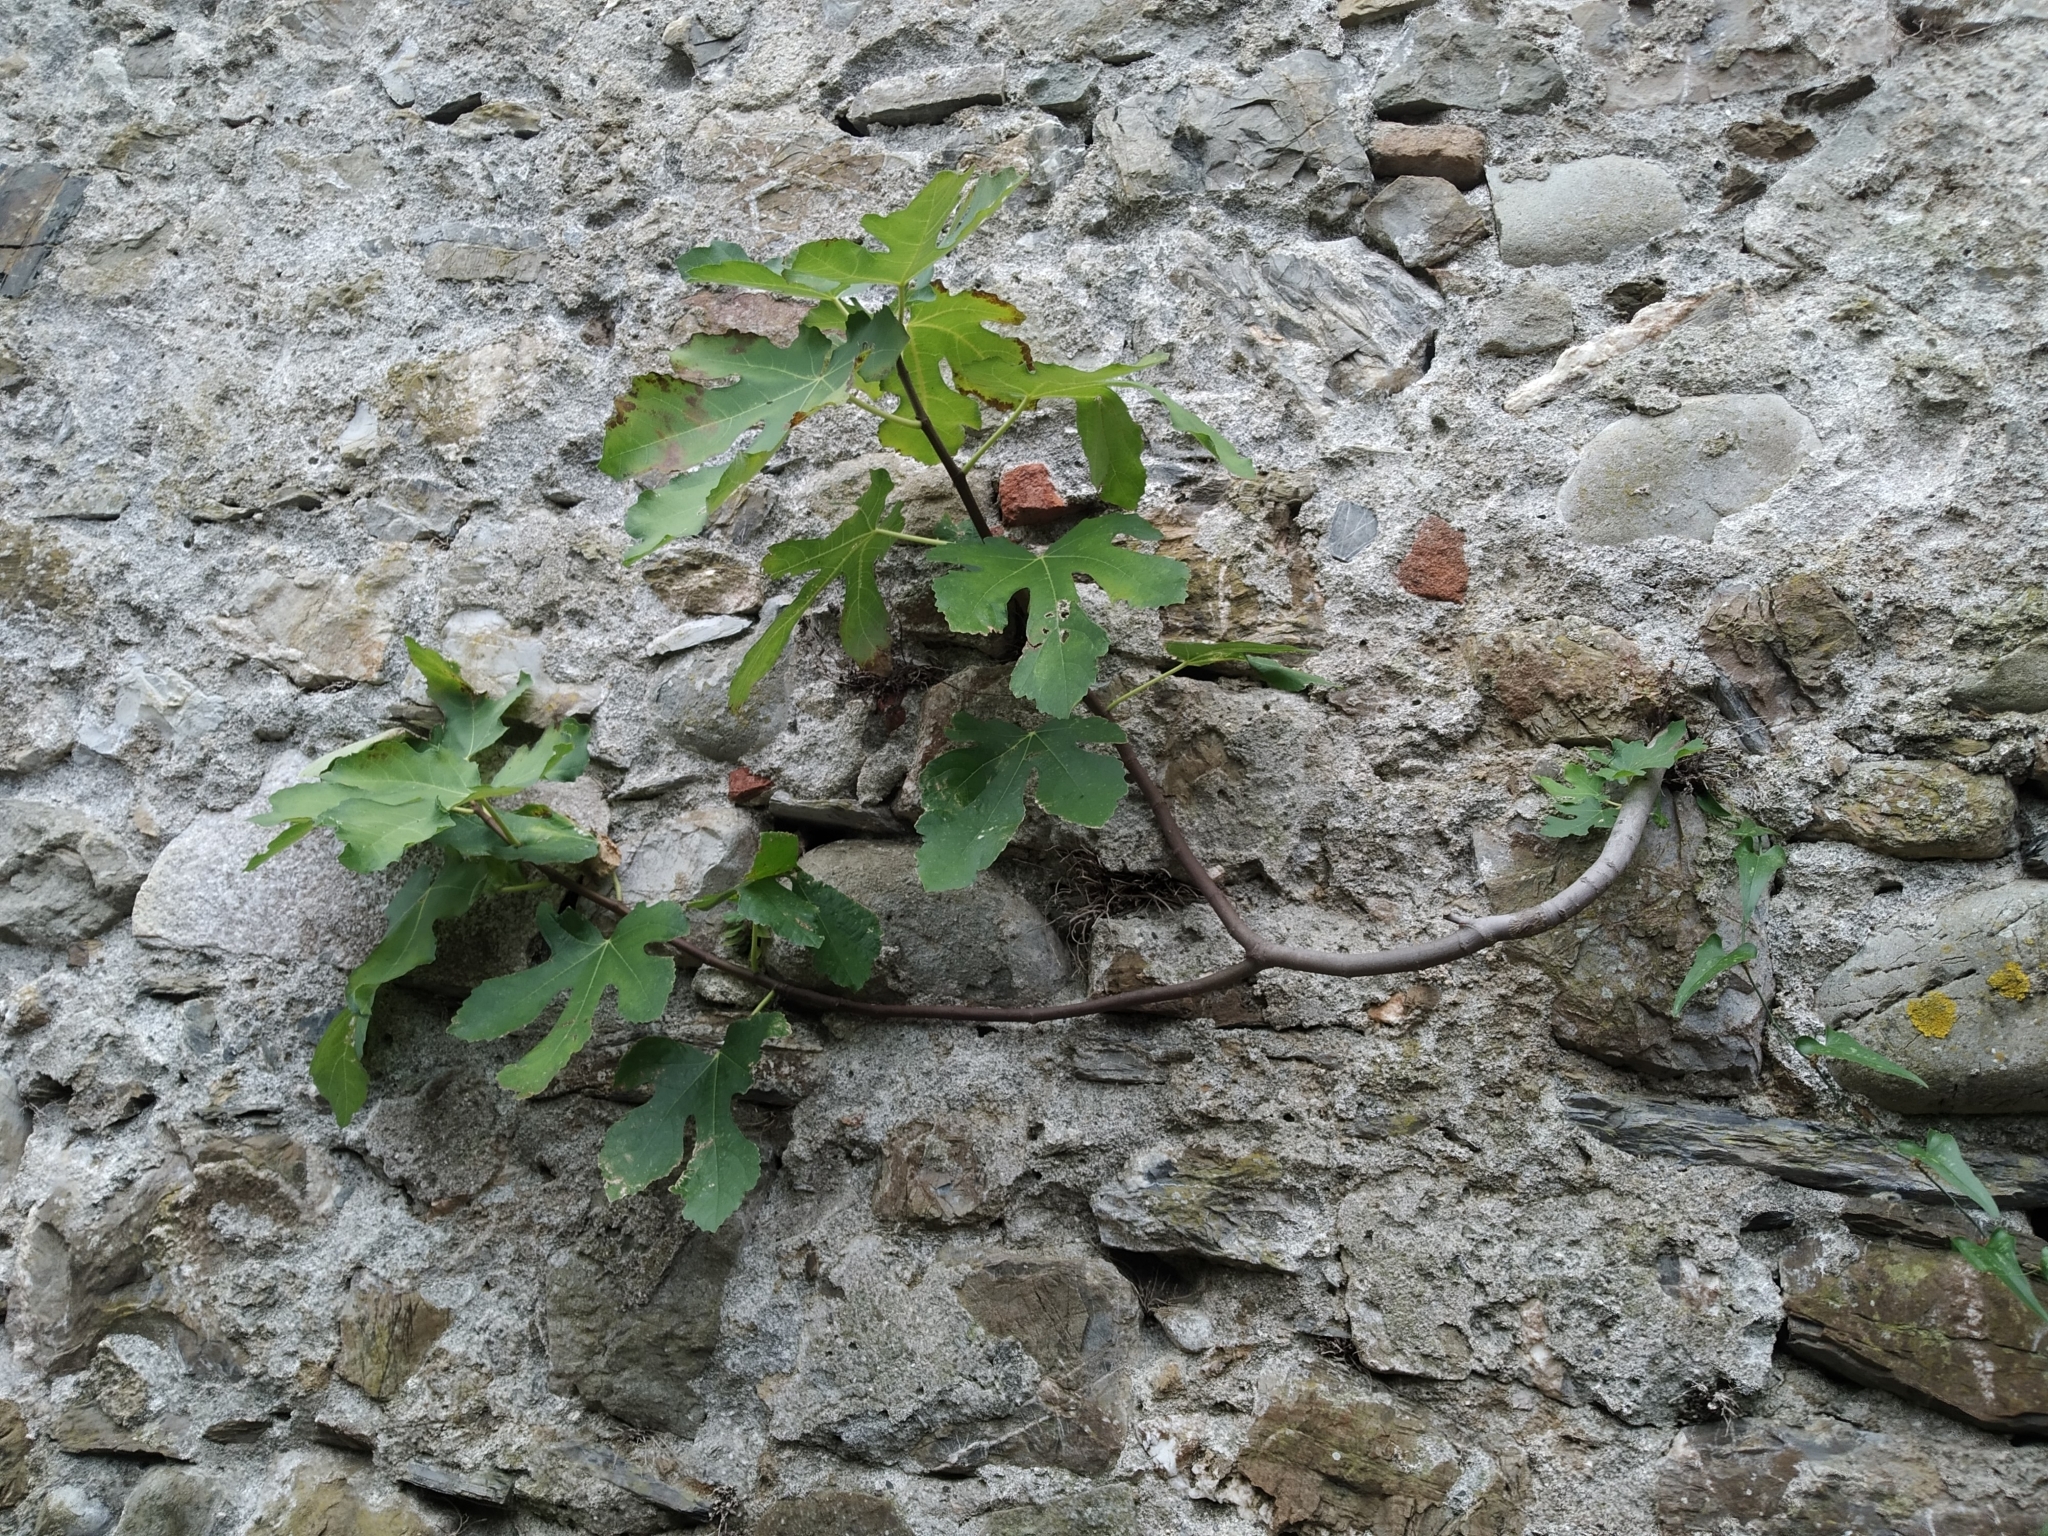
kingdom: Plantae
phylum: Tracheophyta
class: Magnoliopsida
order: Rosales
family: Moraceae
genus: Ficus
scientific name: Ficus carica
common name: Fig
